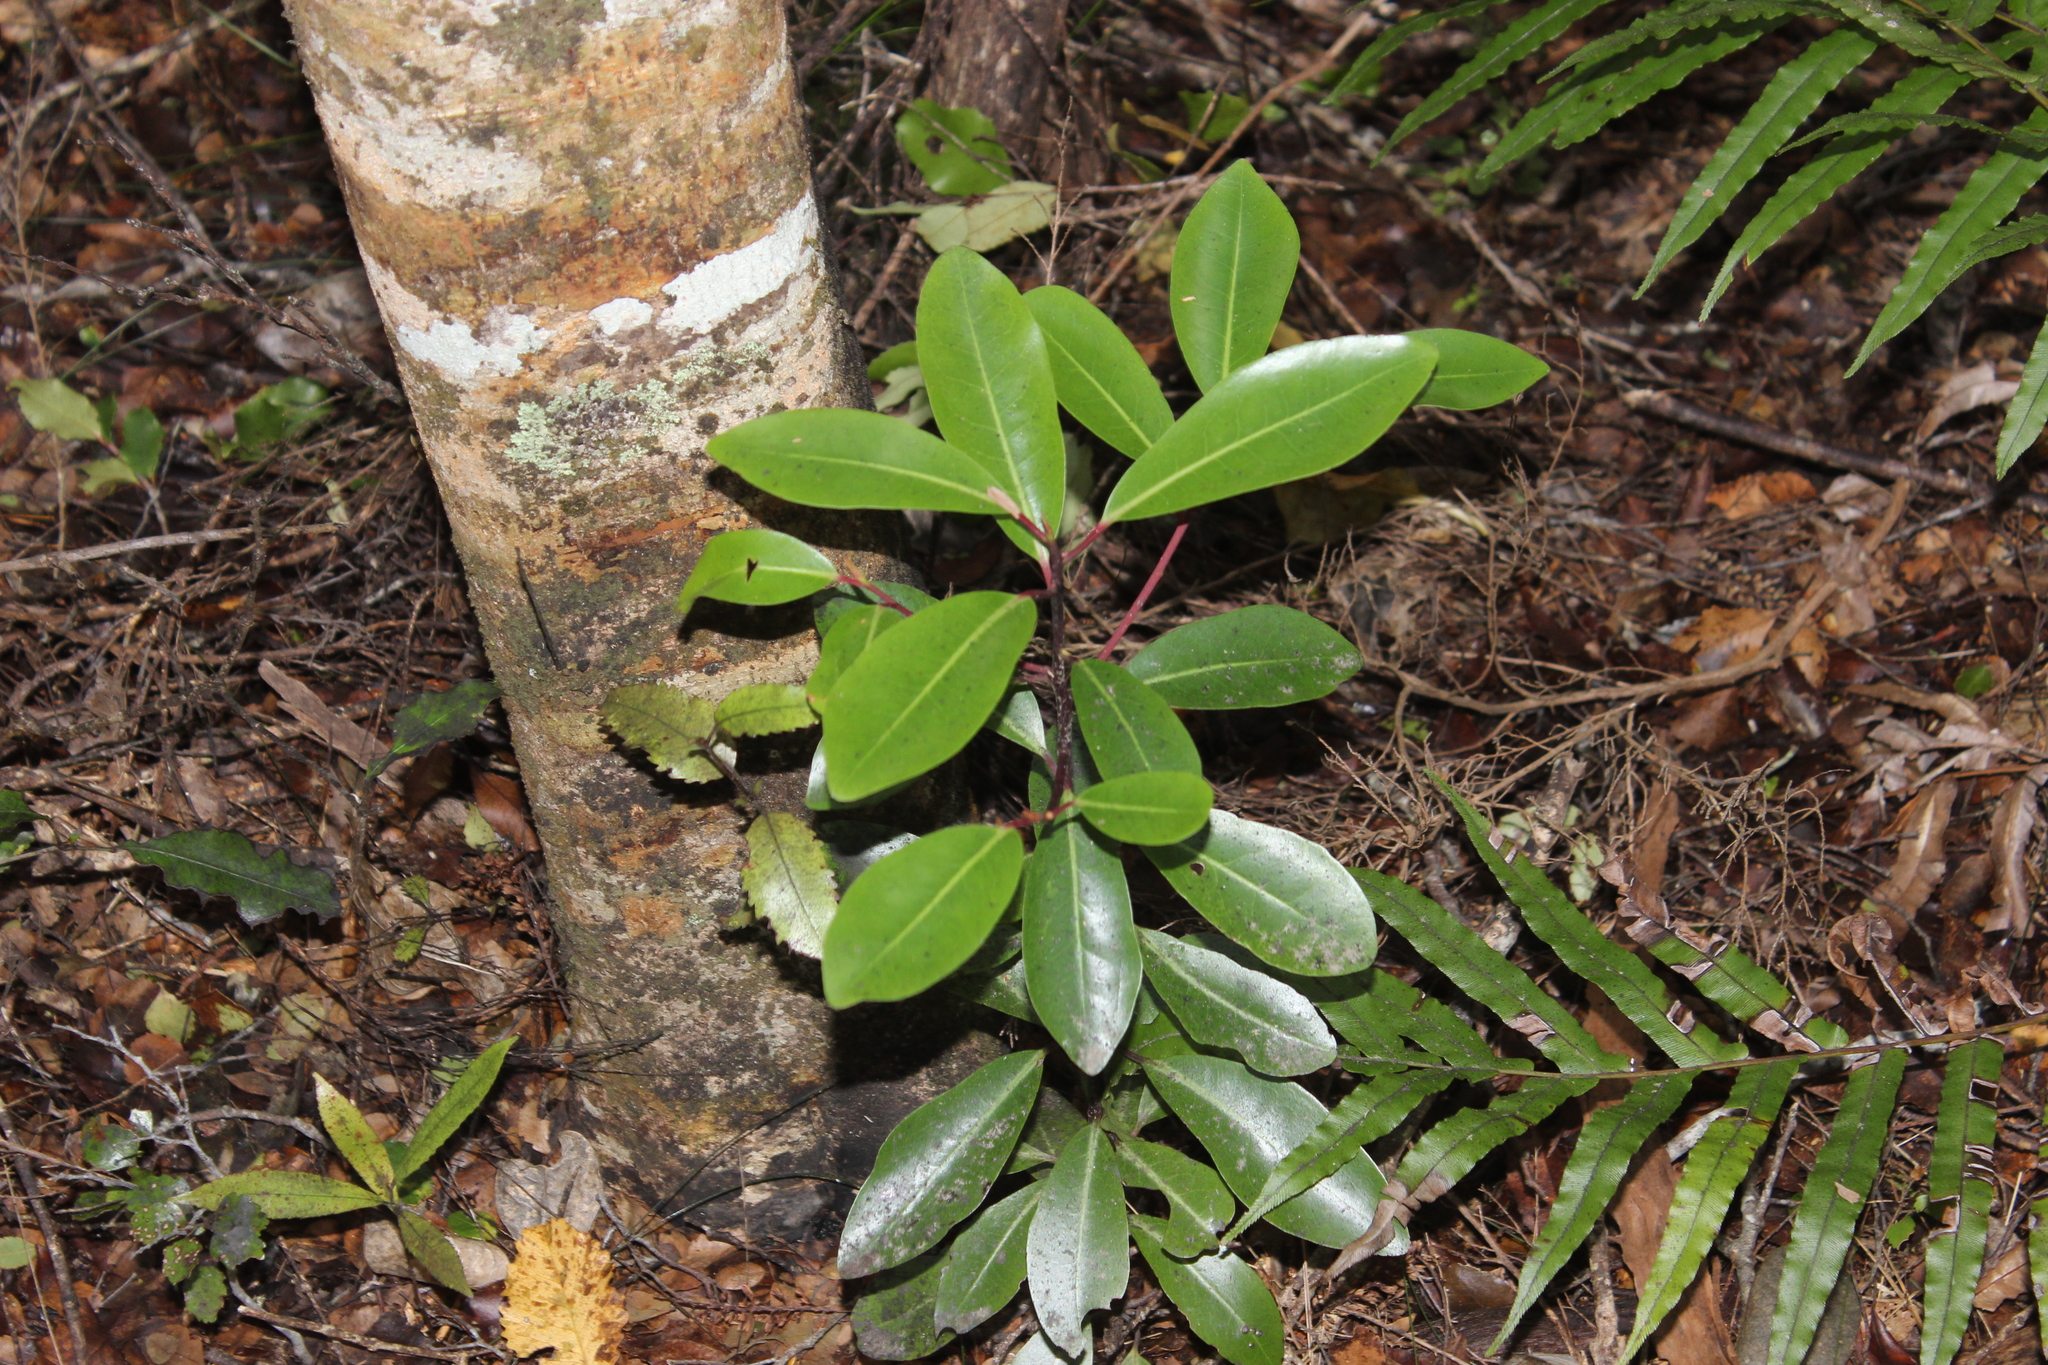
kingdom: Plantae
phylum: Tracheophyta
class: Magnoliopsida
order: Canellales
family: Winteraceae
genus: Pseudowintera
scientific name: Pseudowintera axillaris
